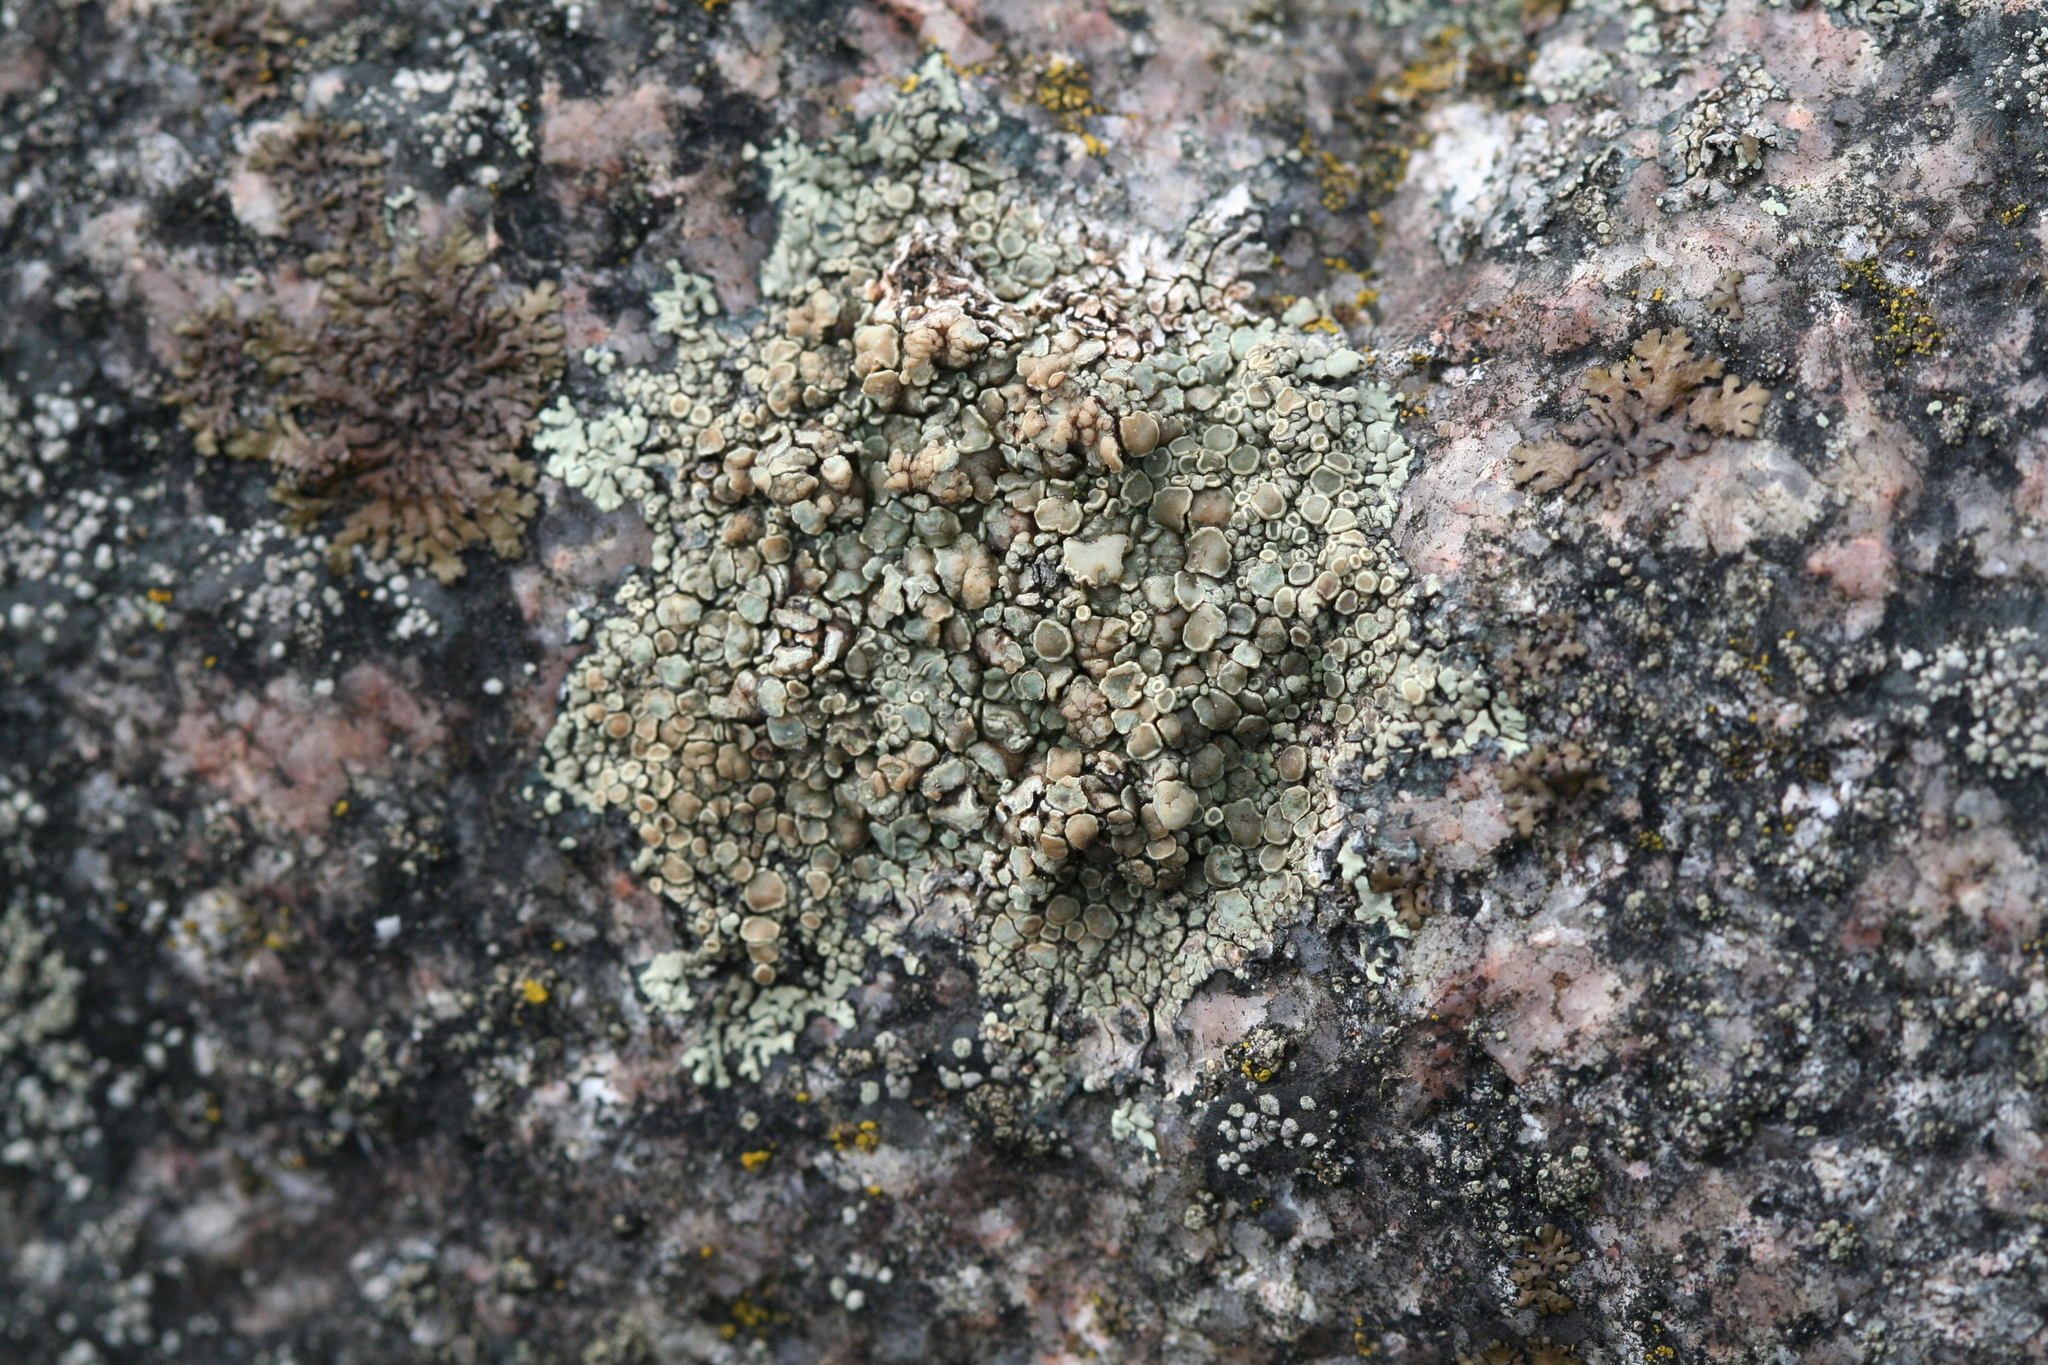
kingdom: Fungi
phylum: Ascomycota
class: Lecanoromycetes
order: Lecanorales
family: Lecanoraceae
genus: Protoparmeliopsis
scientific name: Protoparmeliopsis muralis
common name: Stonewall rim lichen
